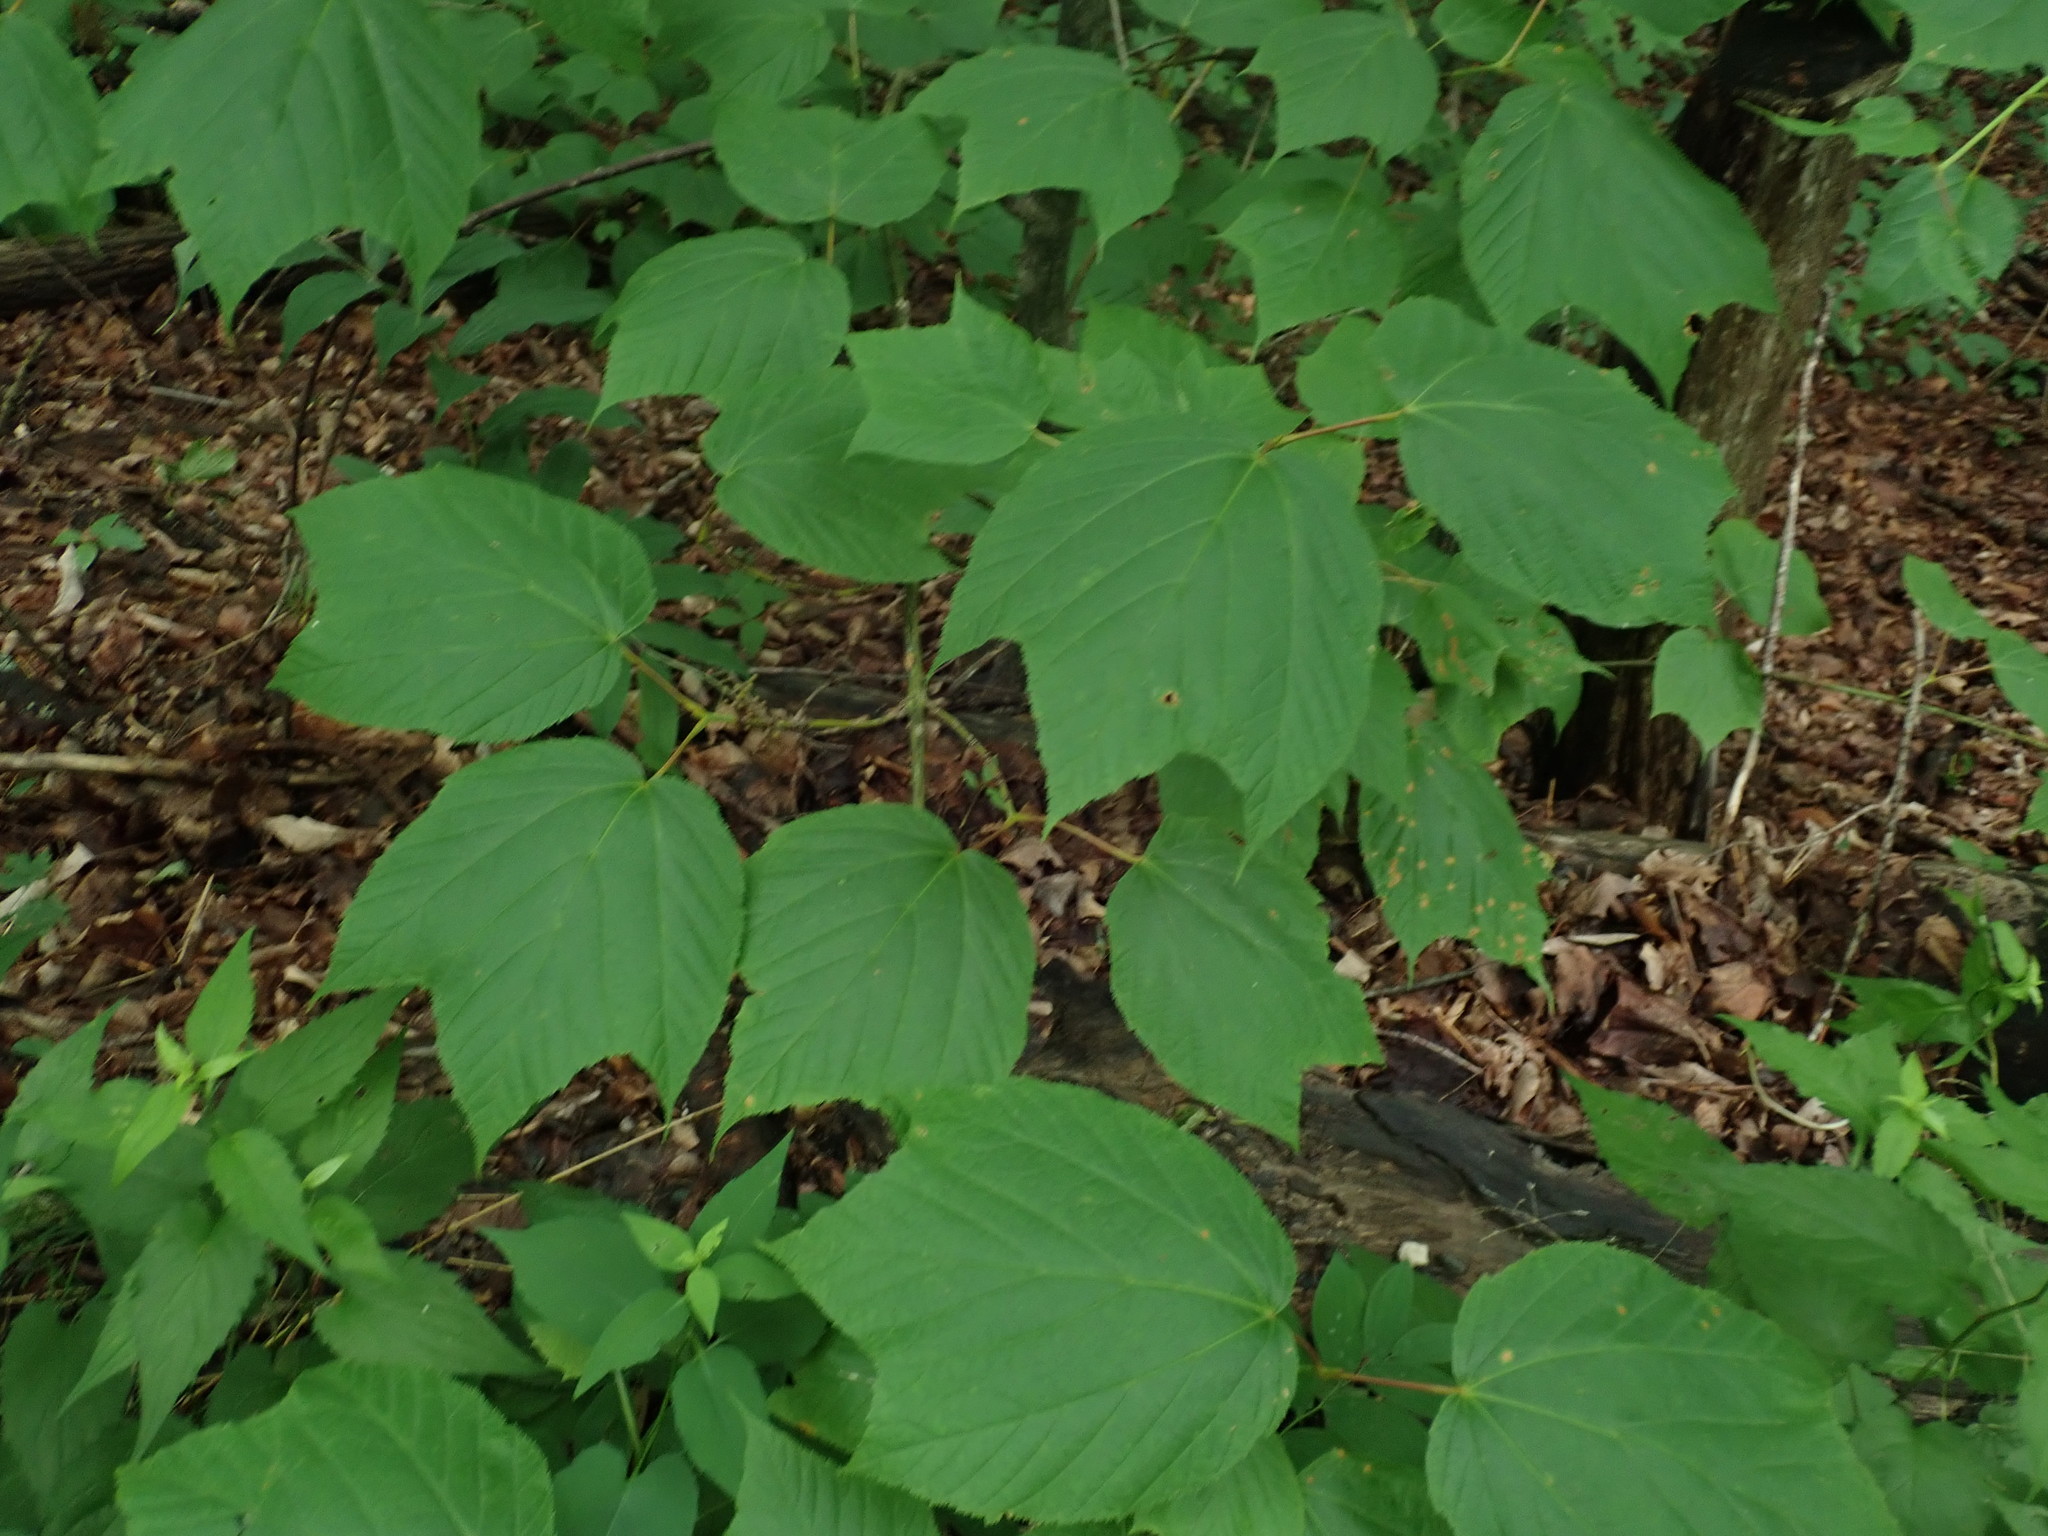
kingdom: Plantae
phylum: Tracheophyta
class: Magnoliopsida
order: Sapindales
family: Sapindaceae
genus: Acer
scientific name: Acer pensylvanicum
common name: Moosewood
